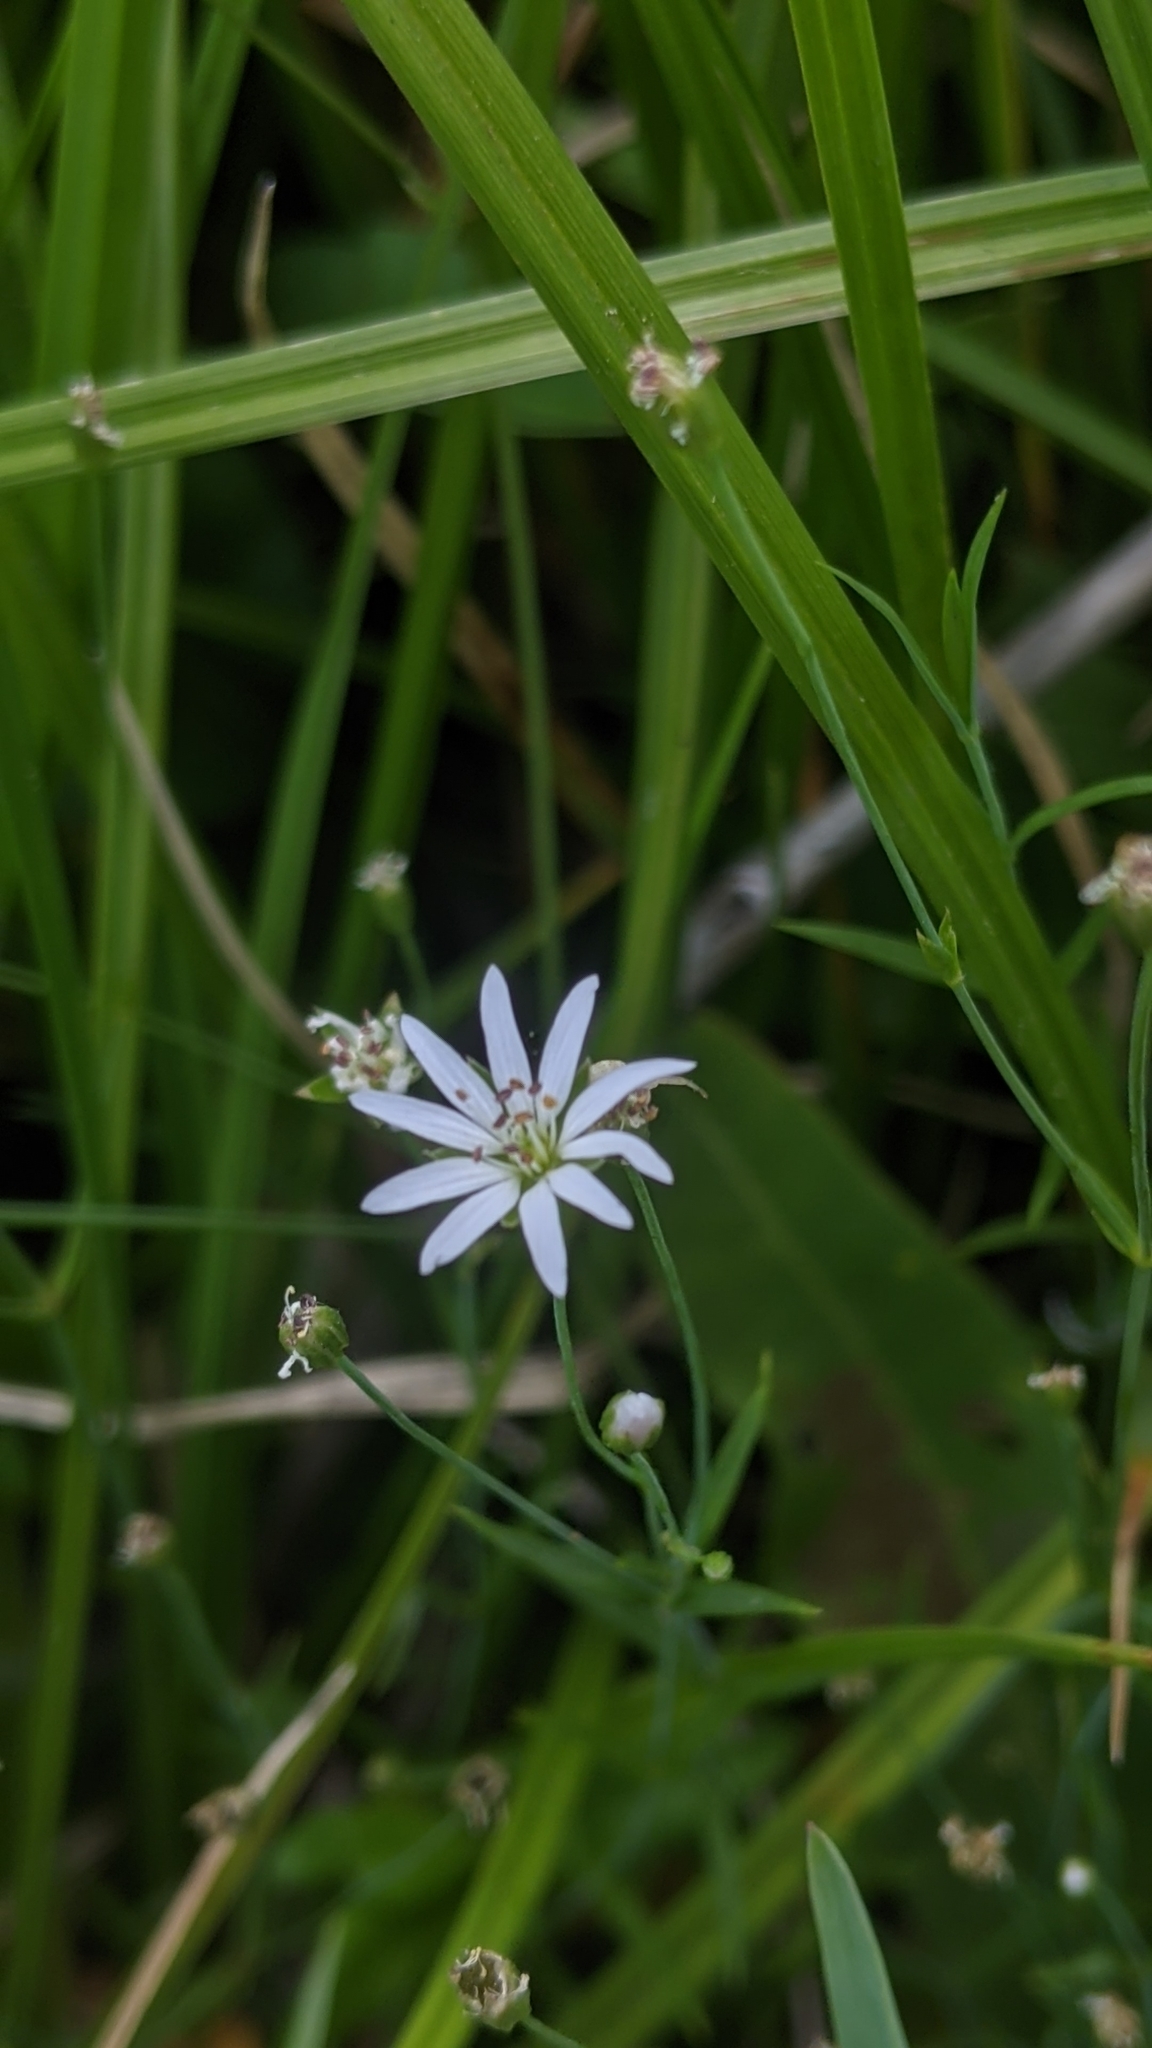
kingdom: Plantae
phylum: Tracheophyta
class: Magnoliopsida
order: Caryophyllales
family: Caryophyllaceae
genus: Stellaria
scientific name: Stellaria longipes
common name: Goldie's starwort
